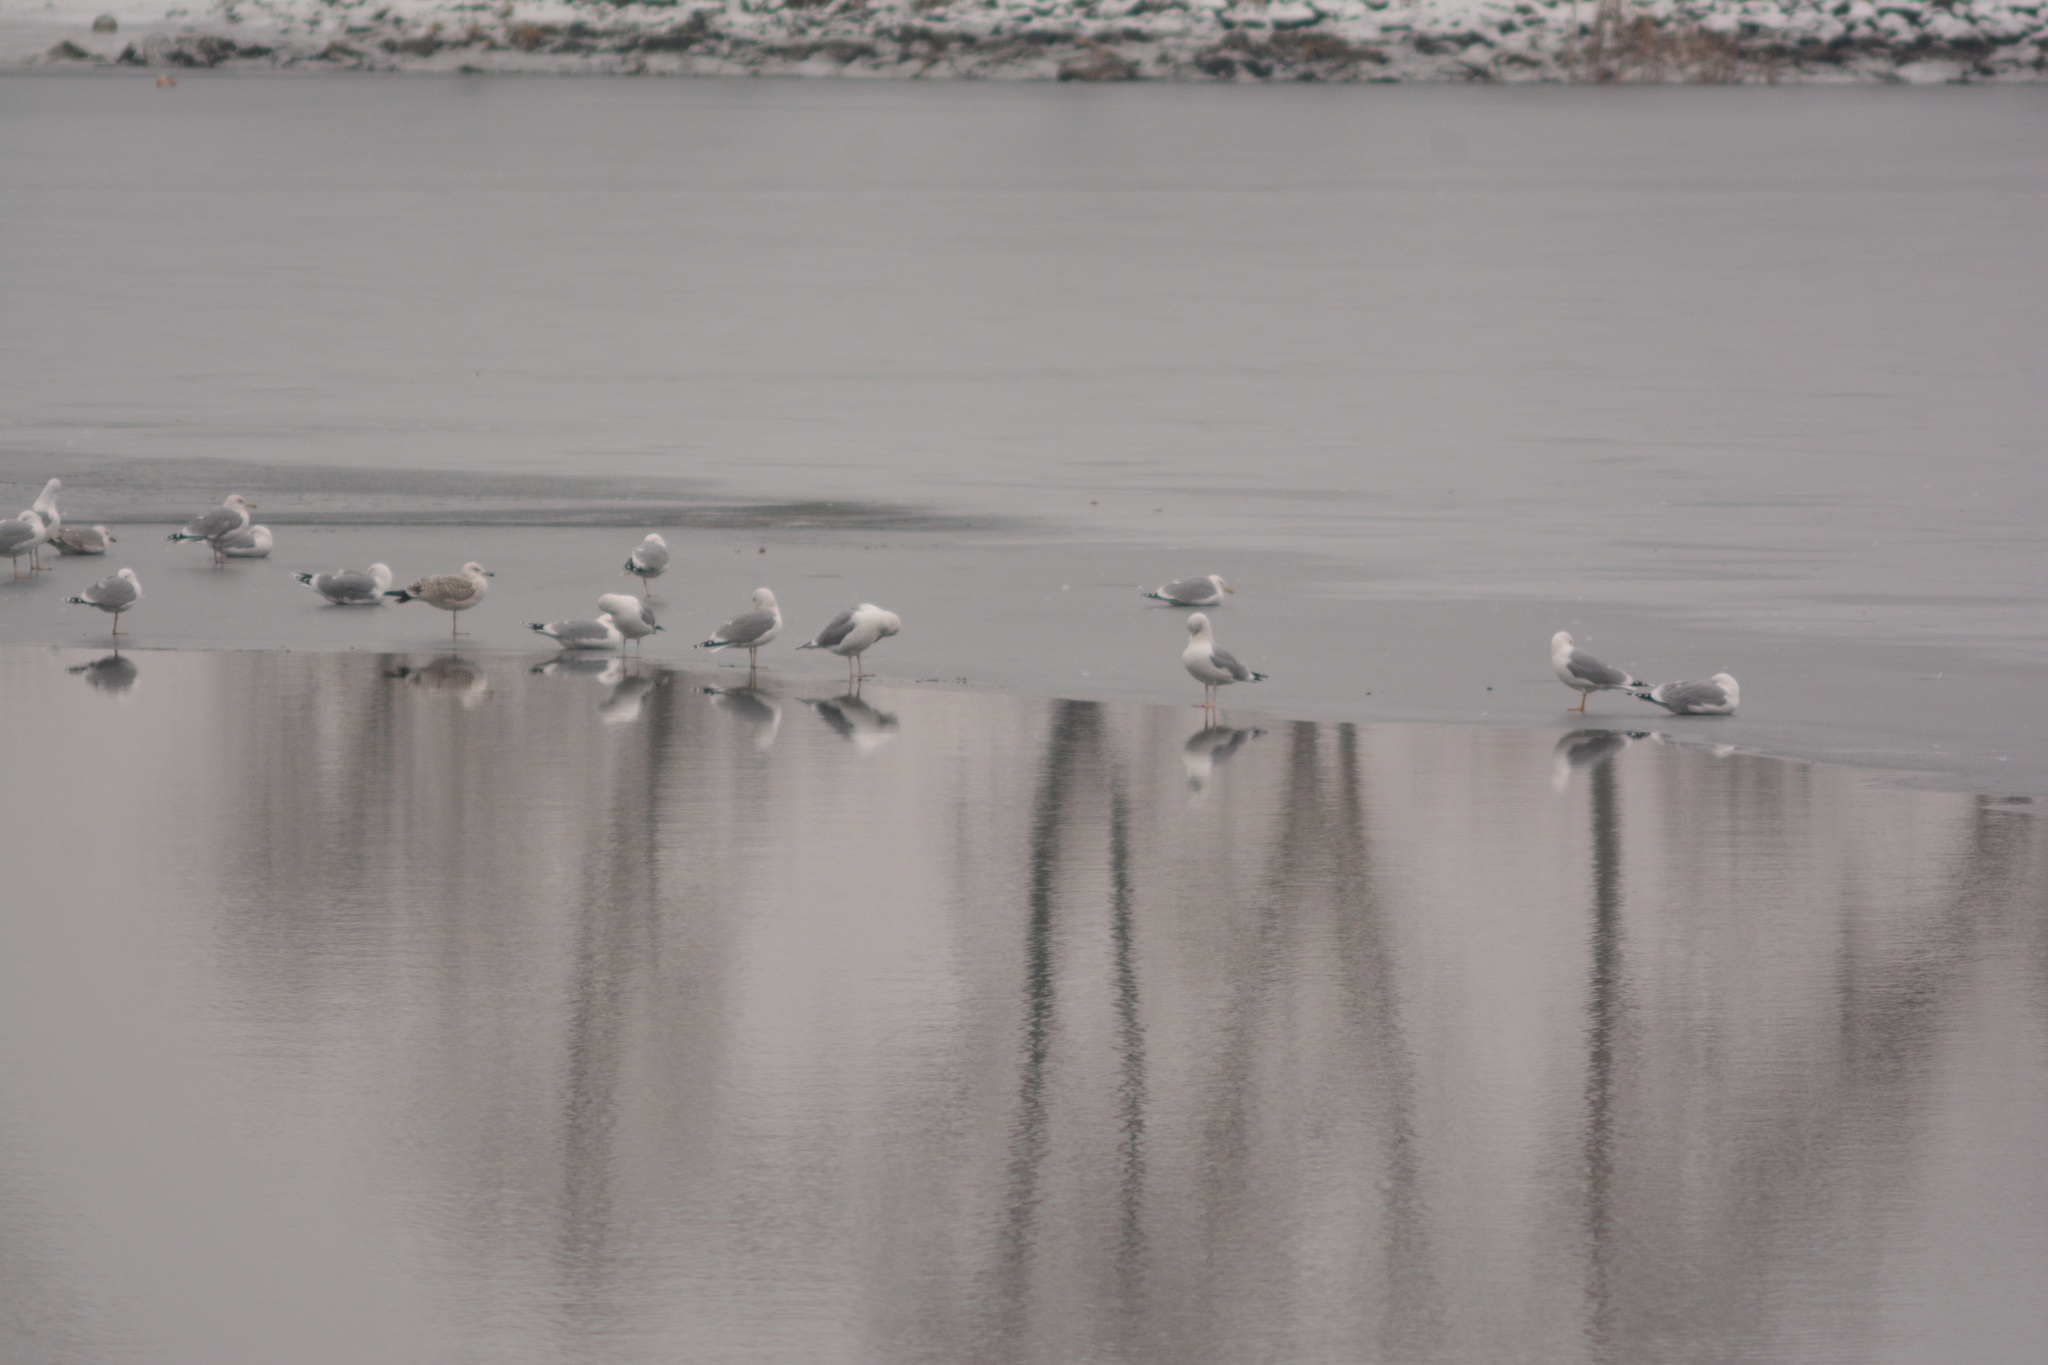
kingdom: Animalia
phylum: Chordata
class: Aves
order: Charadriiformes
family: Laridae
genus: Larus
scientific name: Larus cachinnans
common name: Caspian gull
